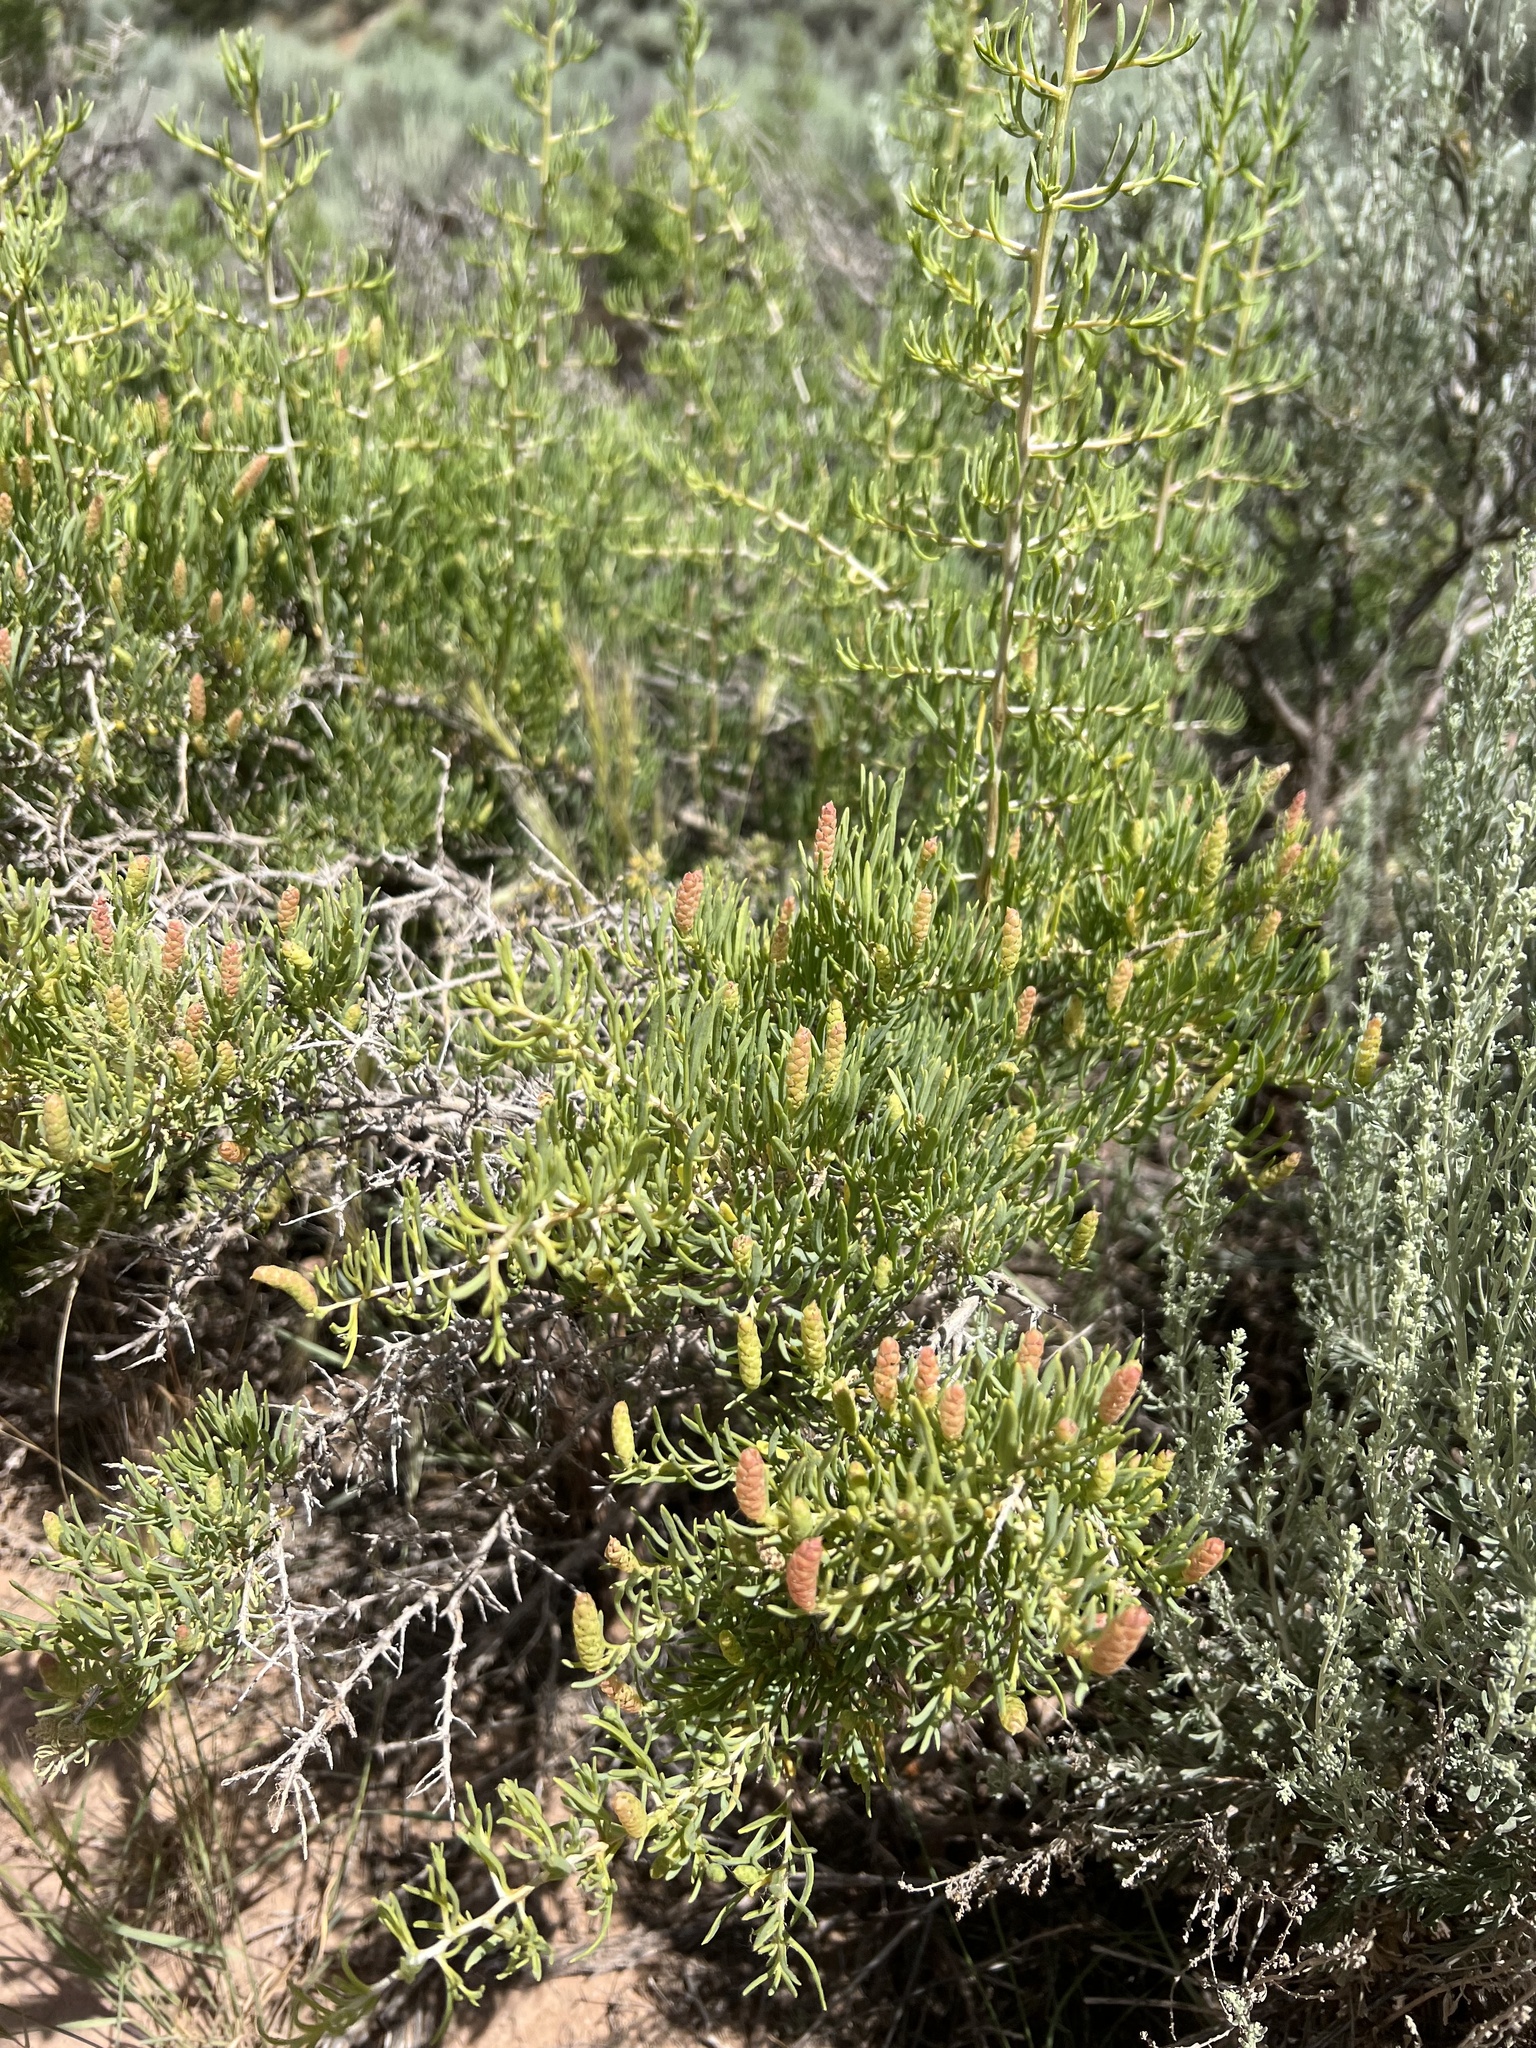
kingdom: Plantae
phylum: Tracheophyta
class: Magnoliopsida
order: Caryophyllales
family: Sarcobataceae
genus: Sarcobatus
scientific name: Sarcobatus vermiculatus
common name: Greasewood
